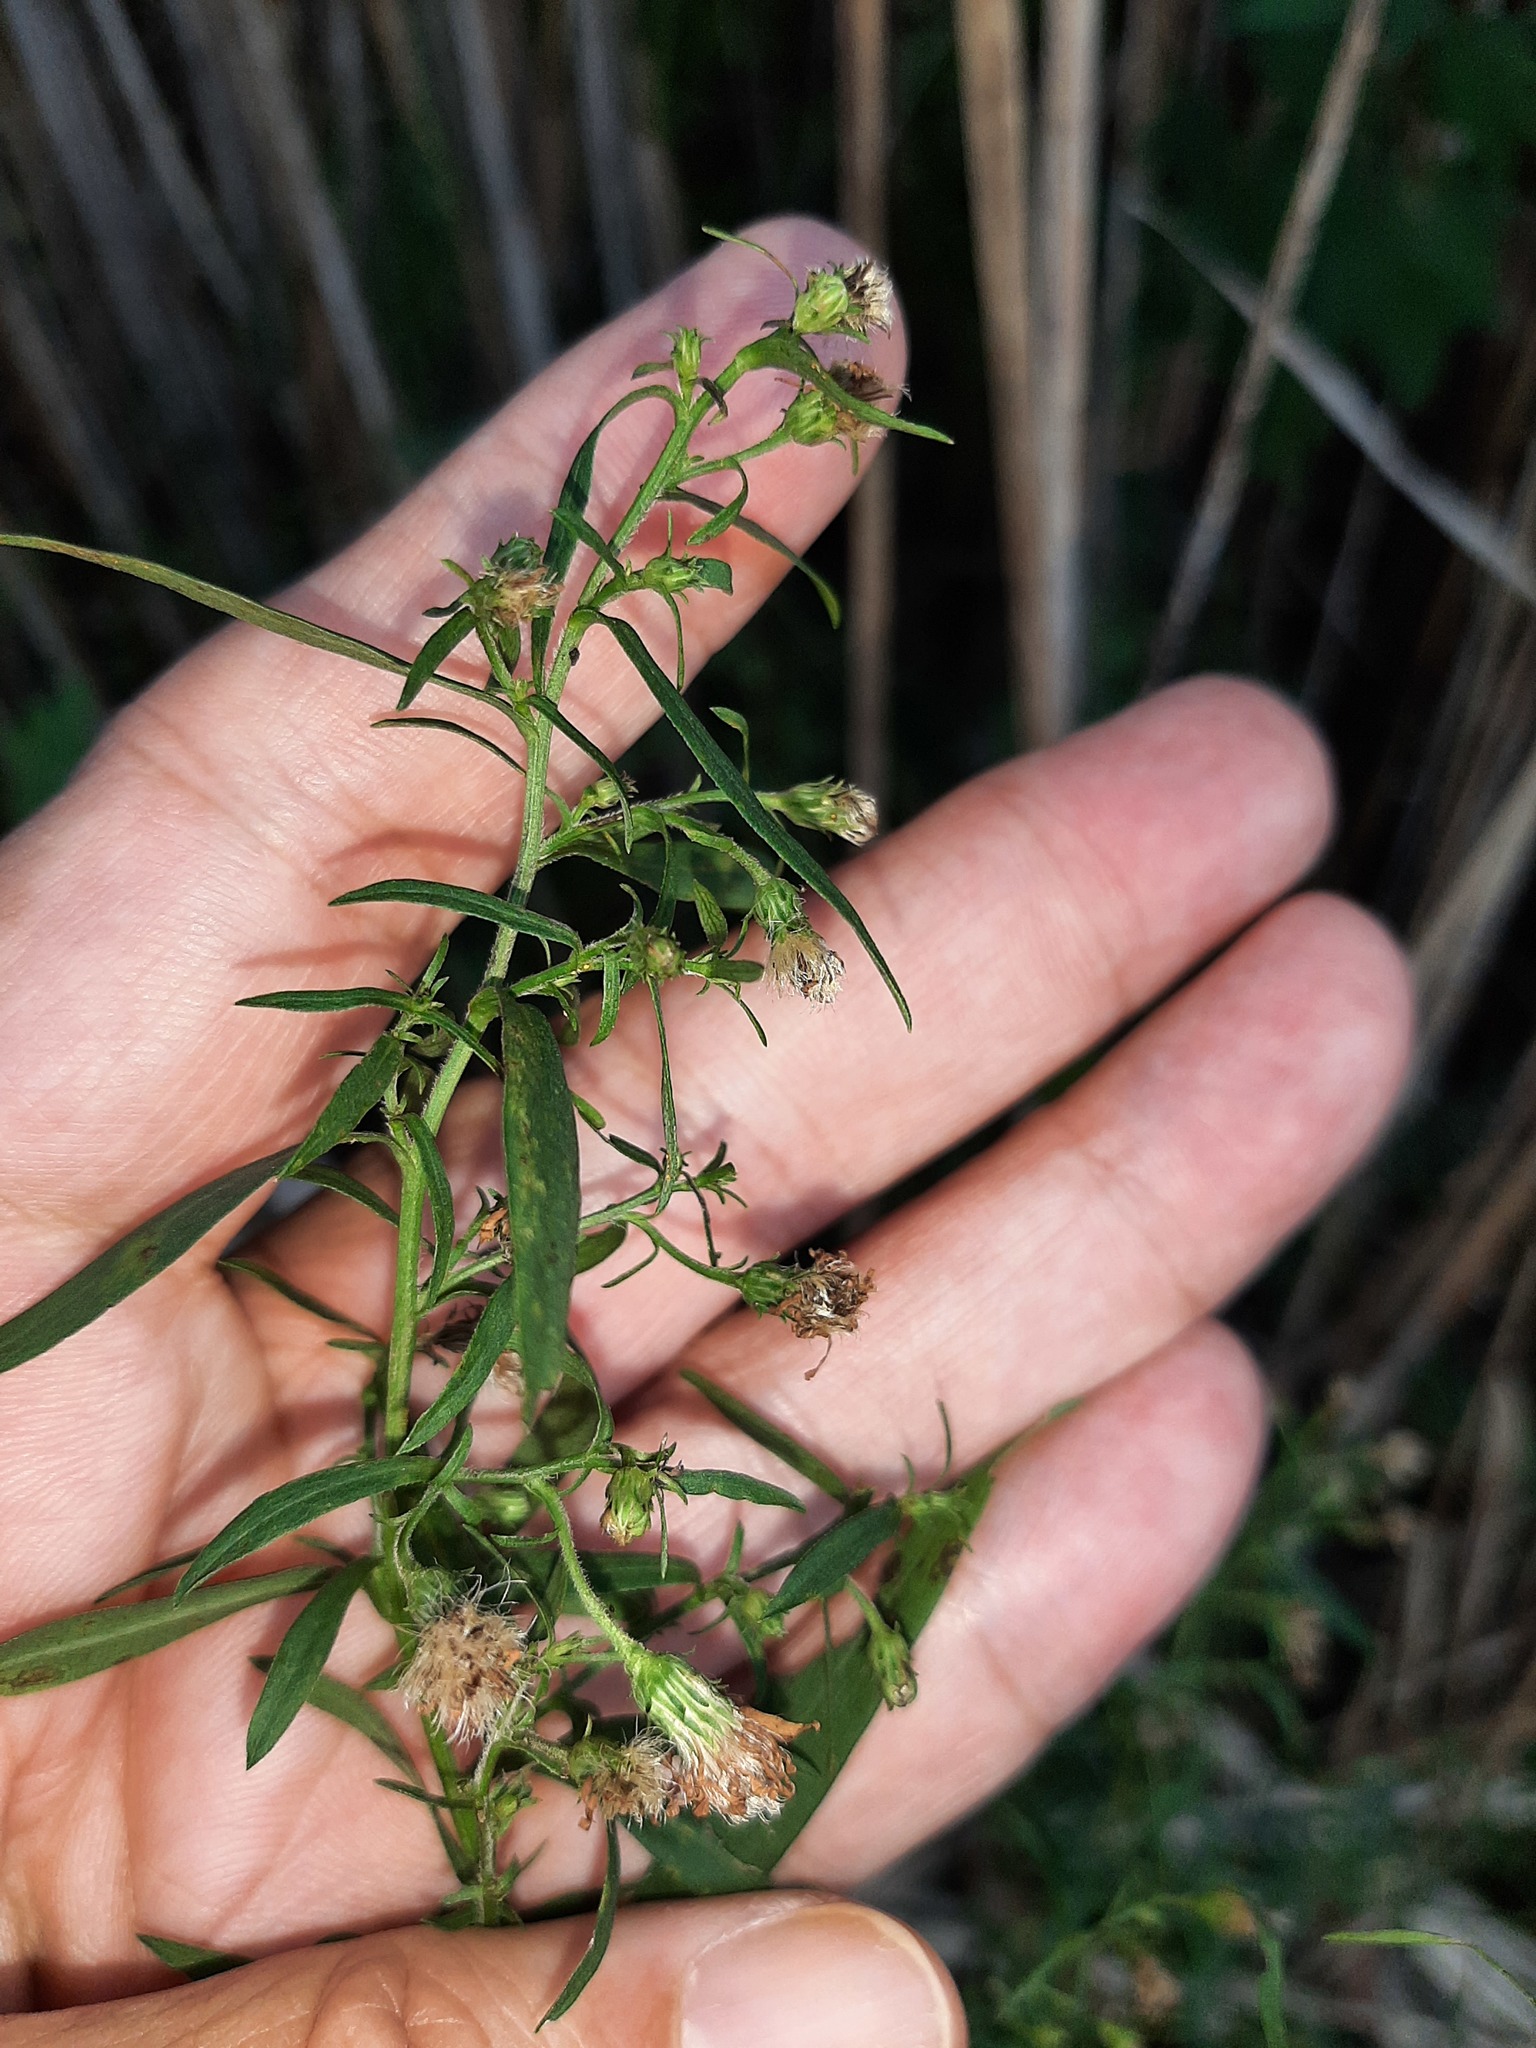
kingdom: Plantae
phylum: Tracheophyta
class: Magnoliopsida
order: Asterales
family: Asteraceae
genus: Symphyotrichum
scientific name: Symphyotrichum lanceolatum
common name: Panicled aster
